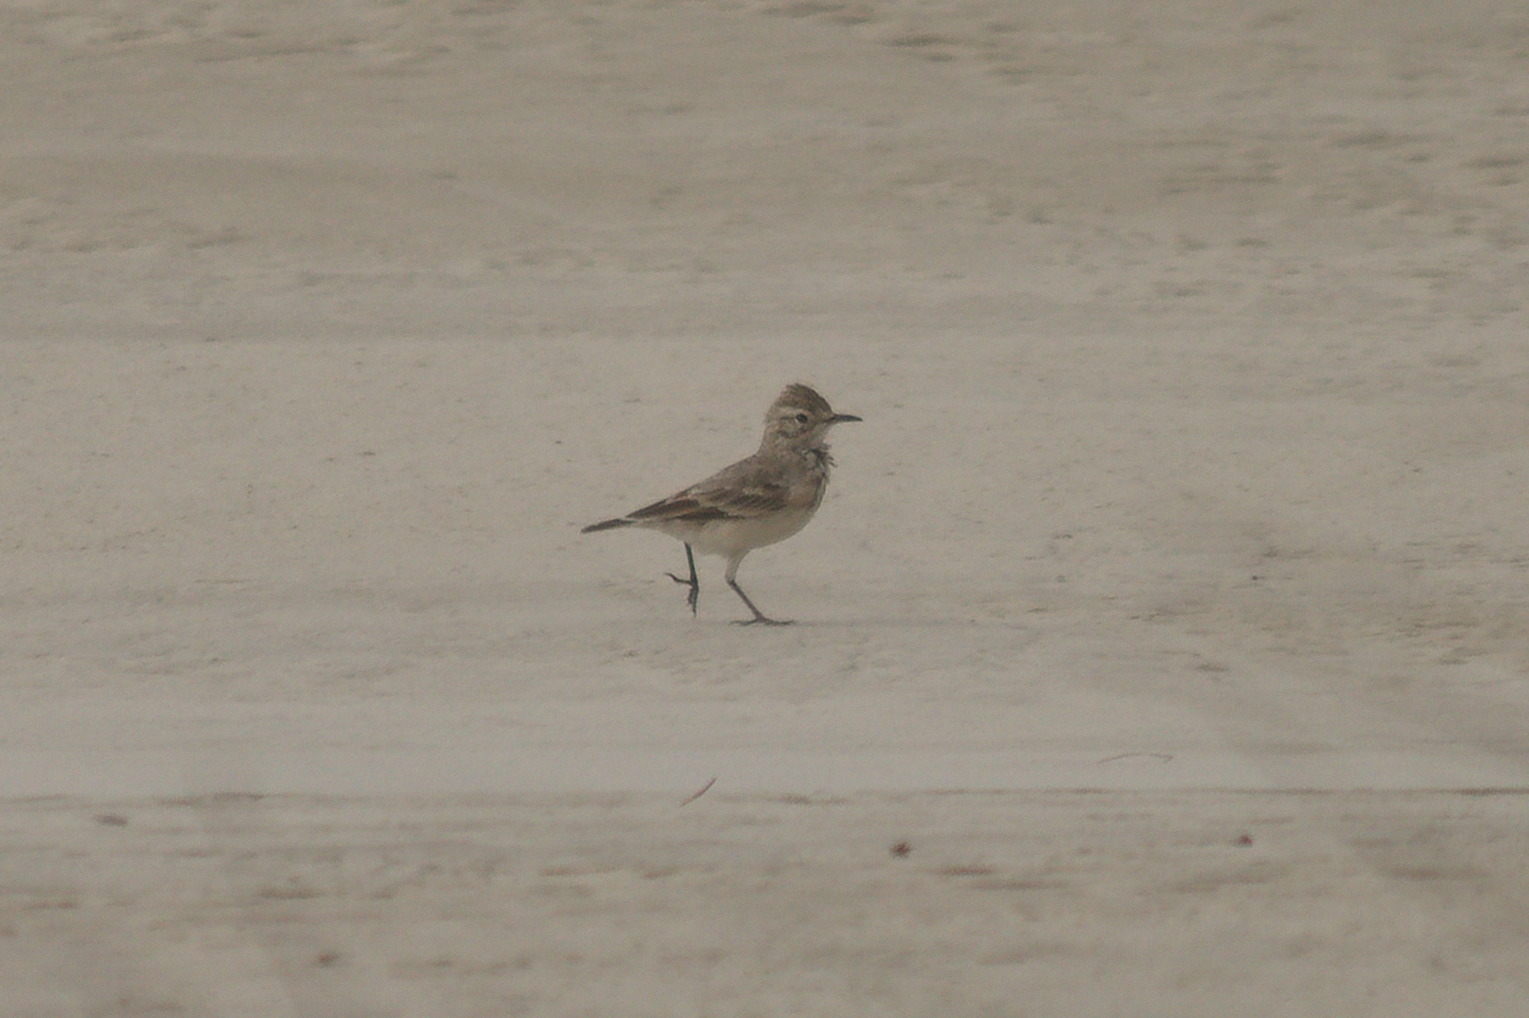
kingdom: Animalia
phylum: Chordata
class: Aves
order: Passeriformes
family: Furnariidae
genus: Geositta
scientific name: Geositta cunicularia
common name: Common miner
